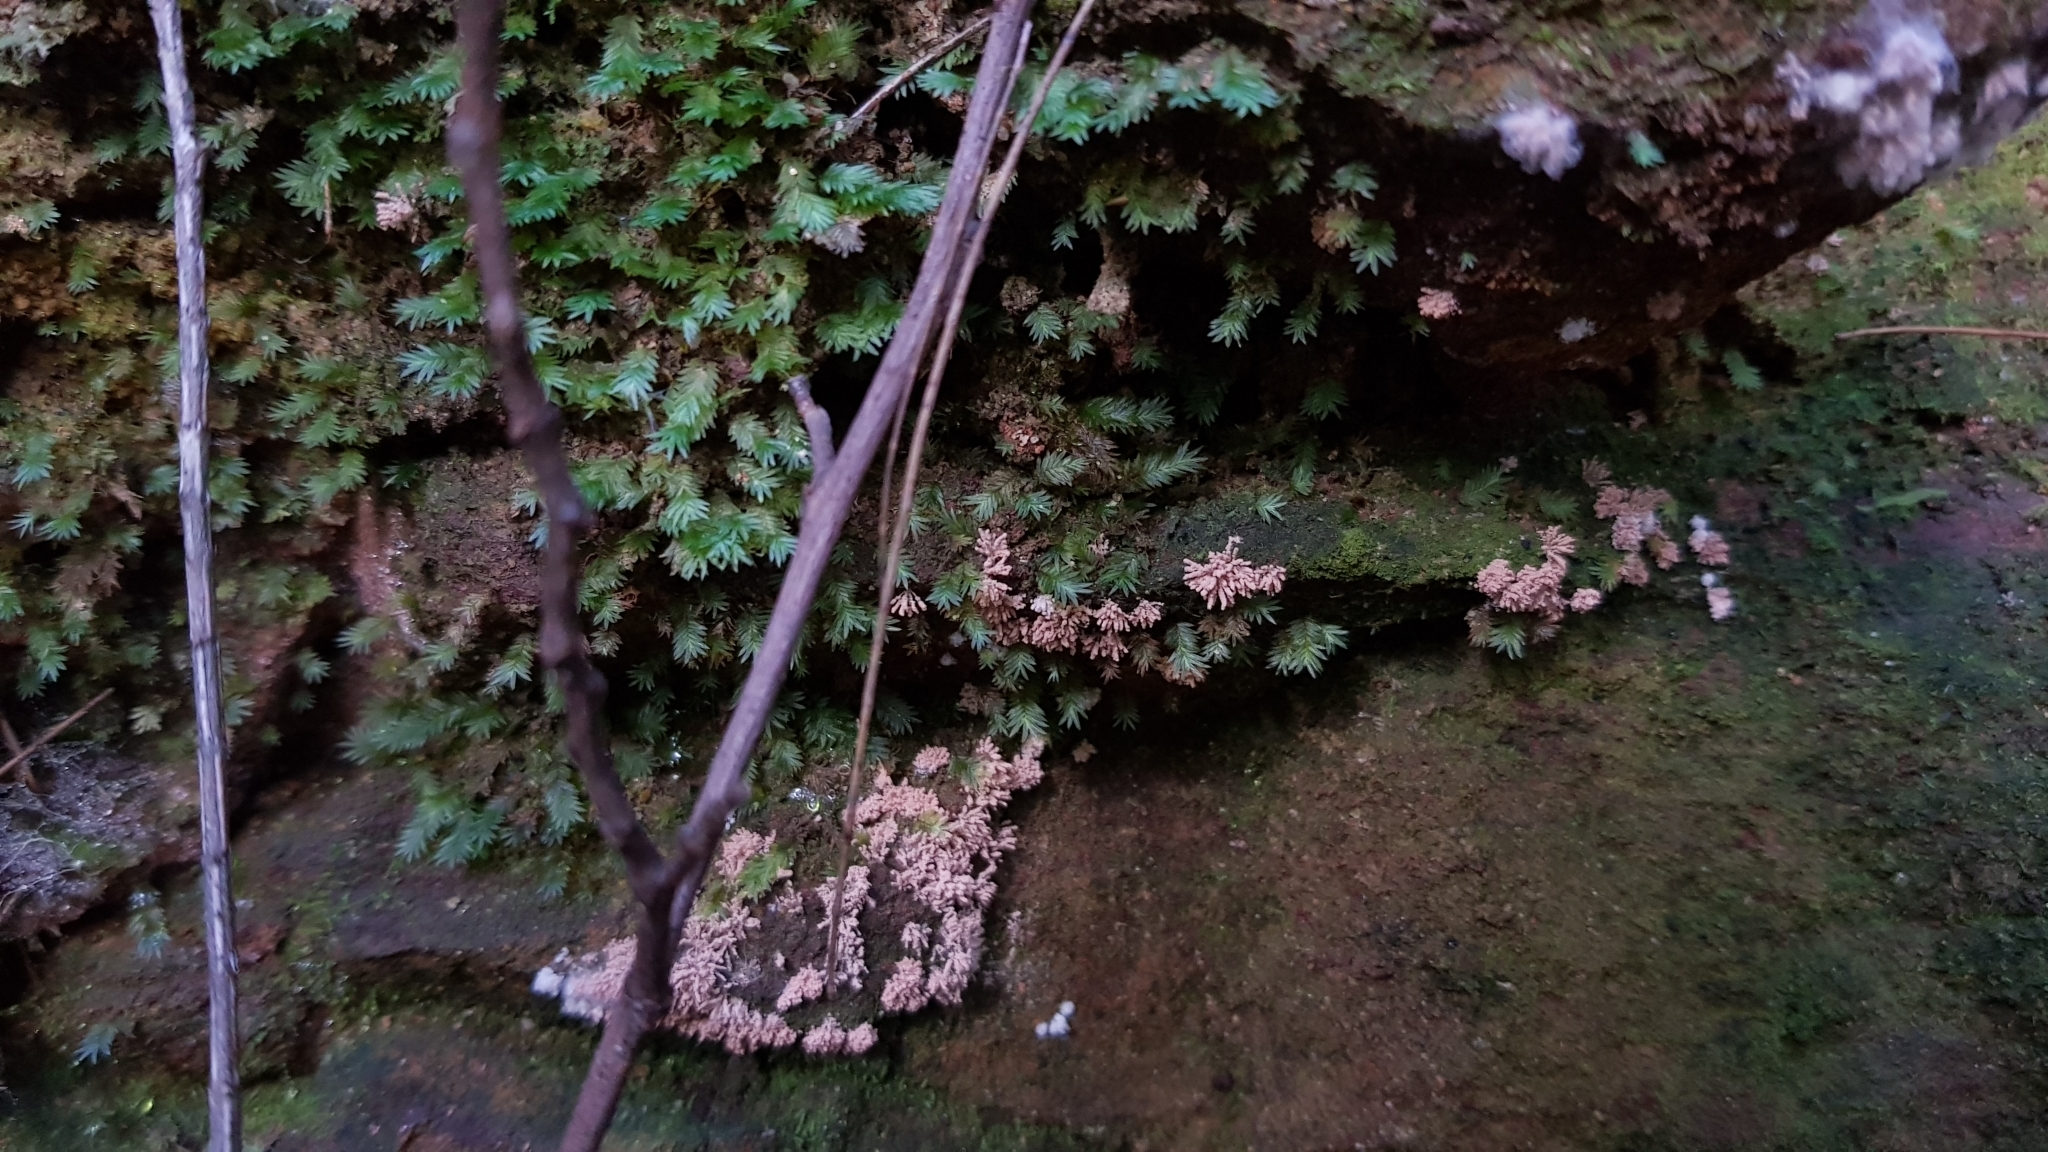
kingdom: Fungi
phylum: Ascomycota
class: Pezizomycetes
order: Pezizales
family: Pezizaceae
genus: Chromelosporiopsis
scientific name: Chromelosporiopsis carnea
